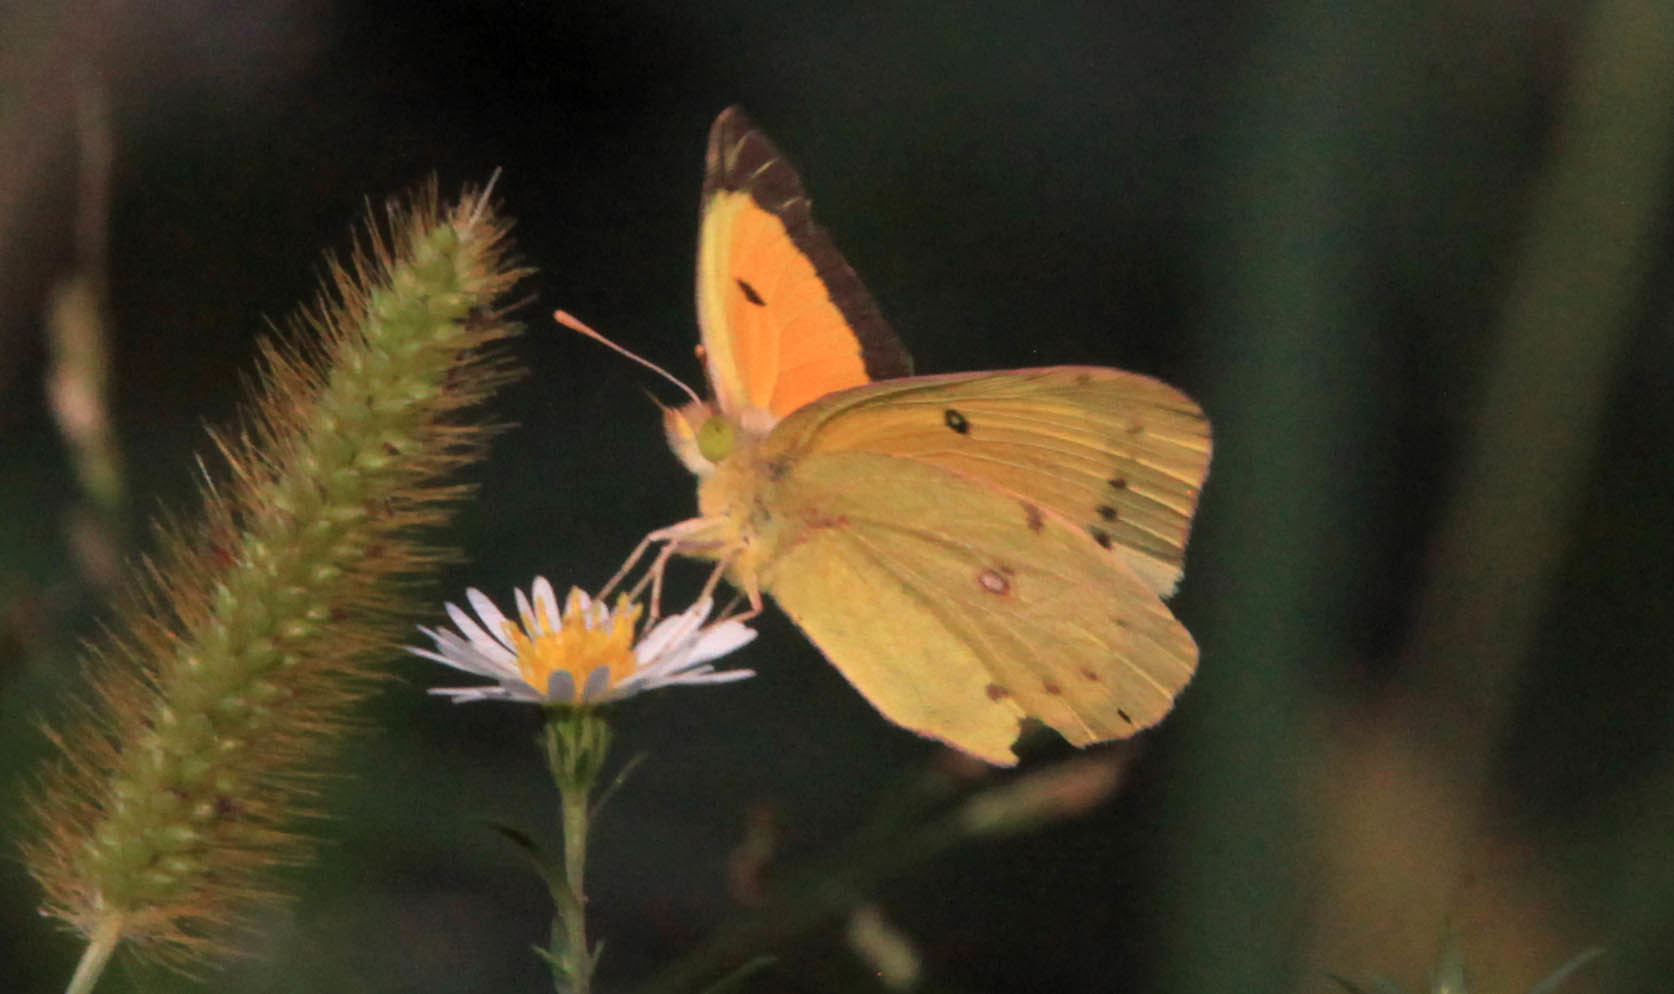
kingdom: Animalia
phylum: Arthropoda
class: Insecta
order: Lepidoptera
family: Pieridae
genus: Colias
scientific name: Colias eurytheme
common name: Alfalfa butterfly
